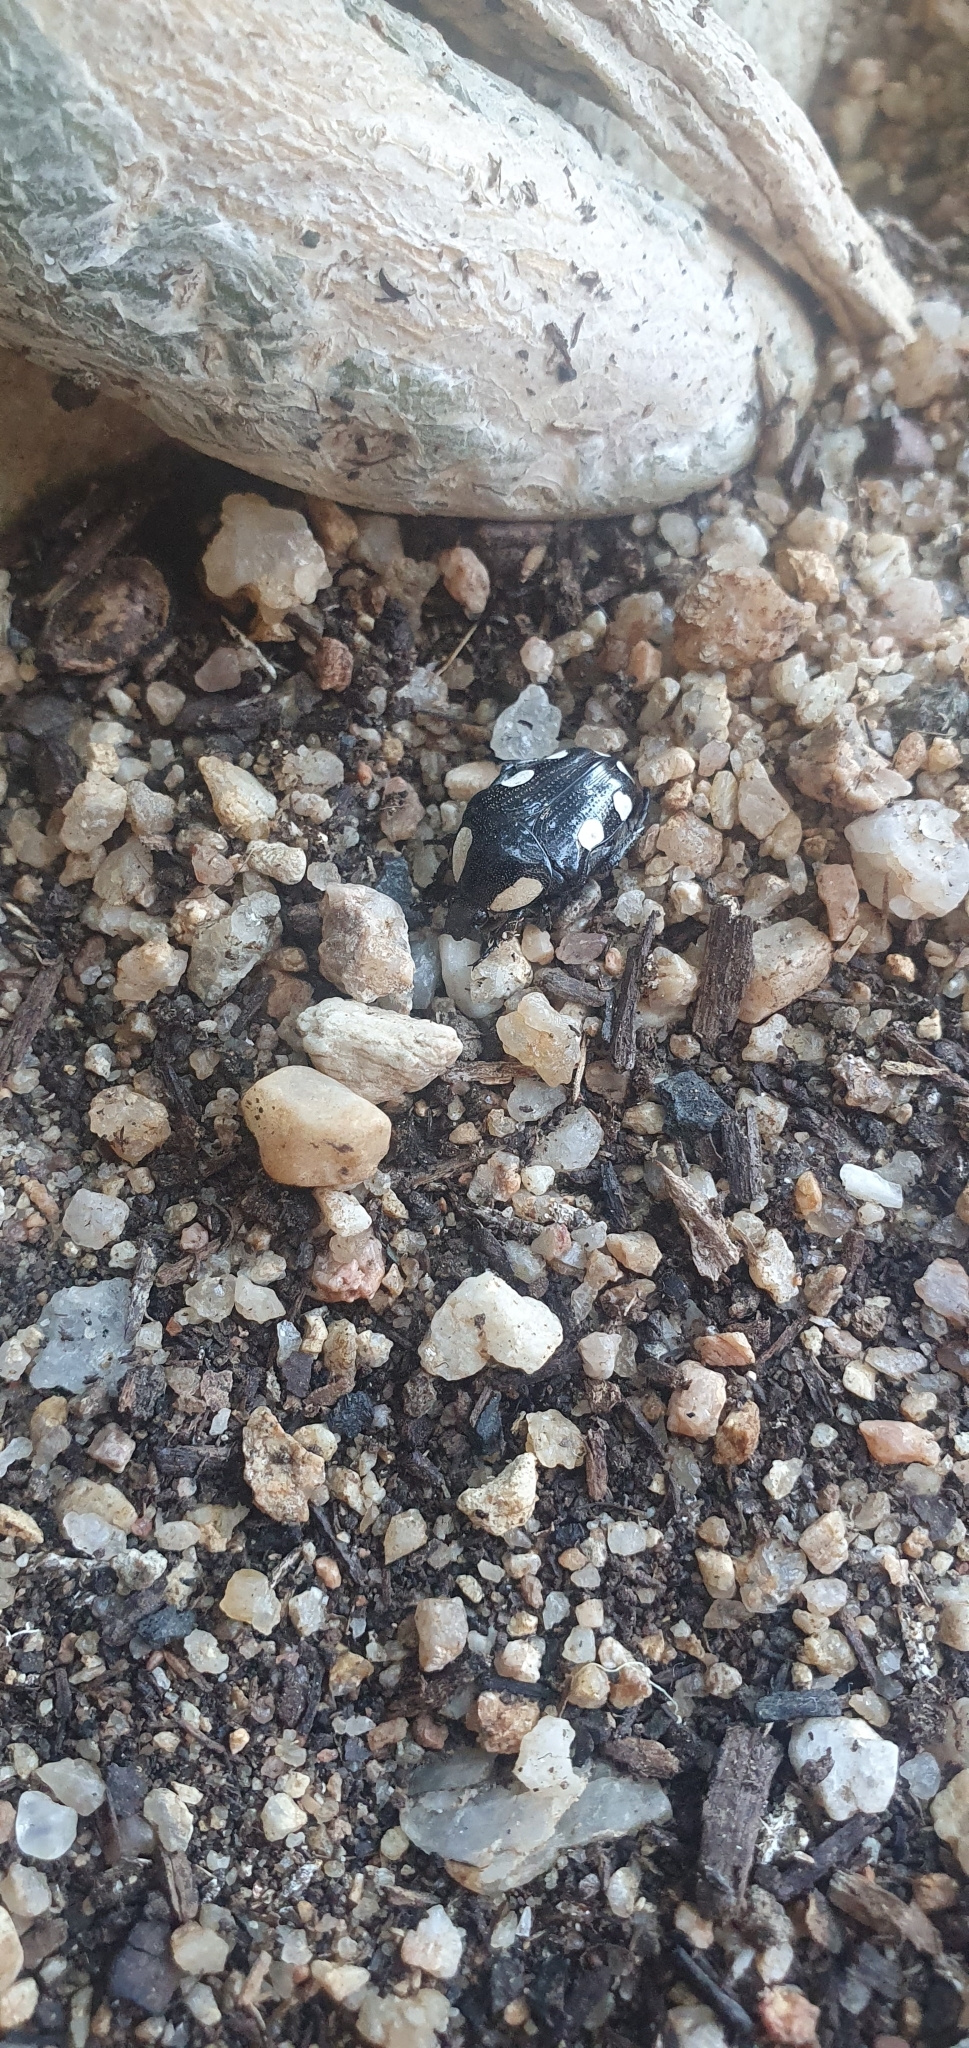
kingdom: Animalia
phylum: Arthropoda
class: Insecta
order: Coleoptera
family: Scarabaeidae
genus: Mausoleopsis
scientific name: Mausoleopsis amabilis
